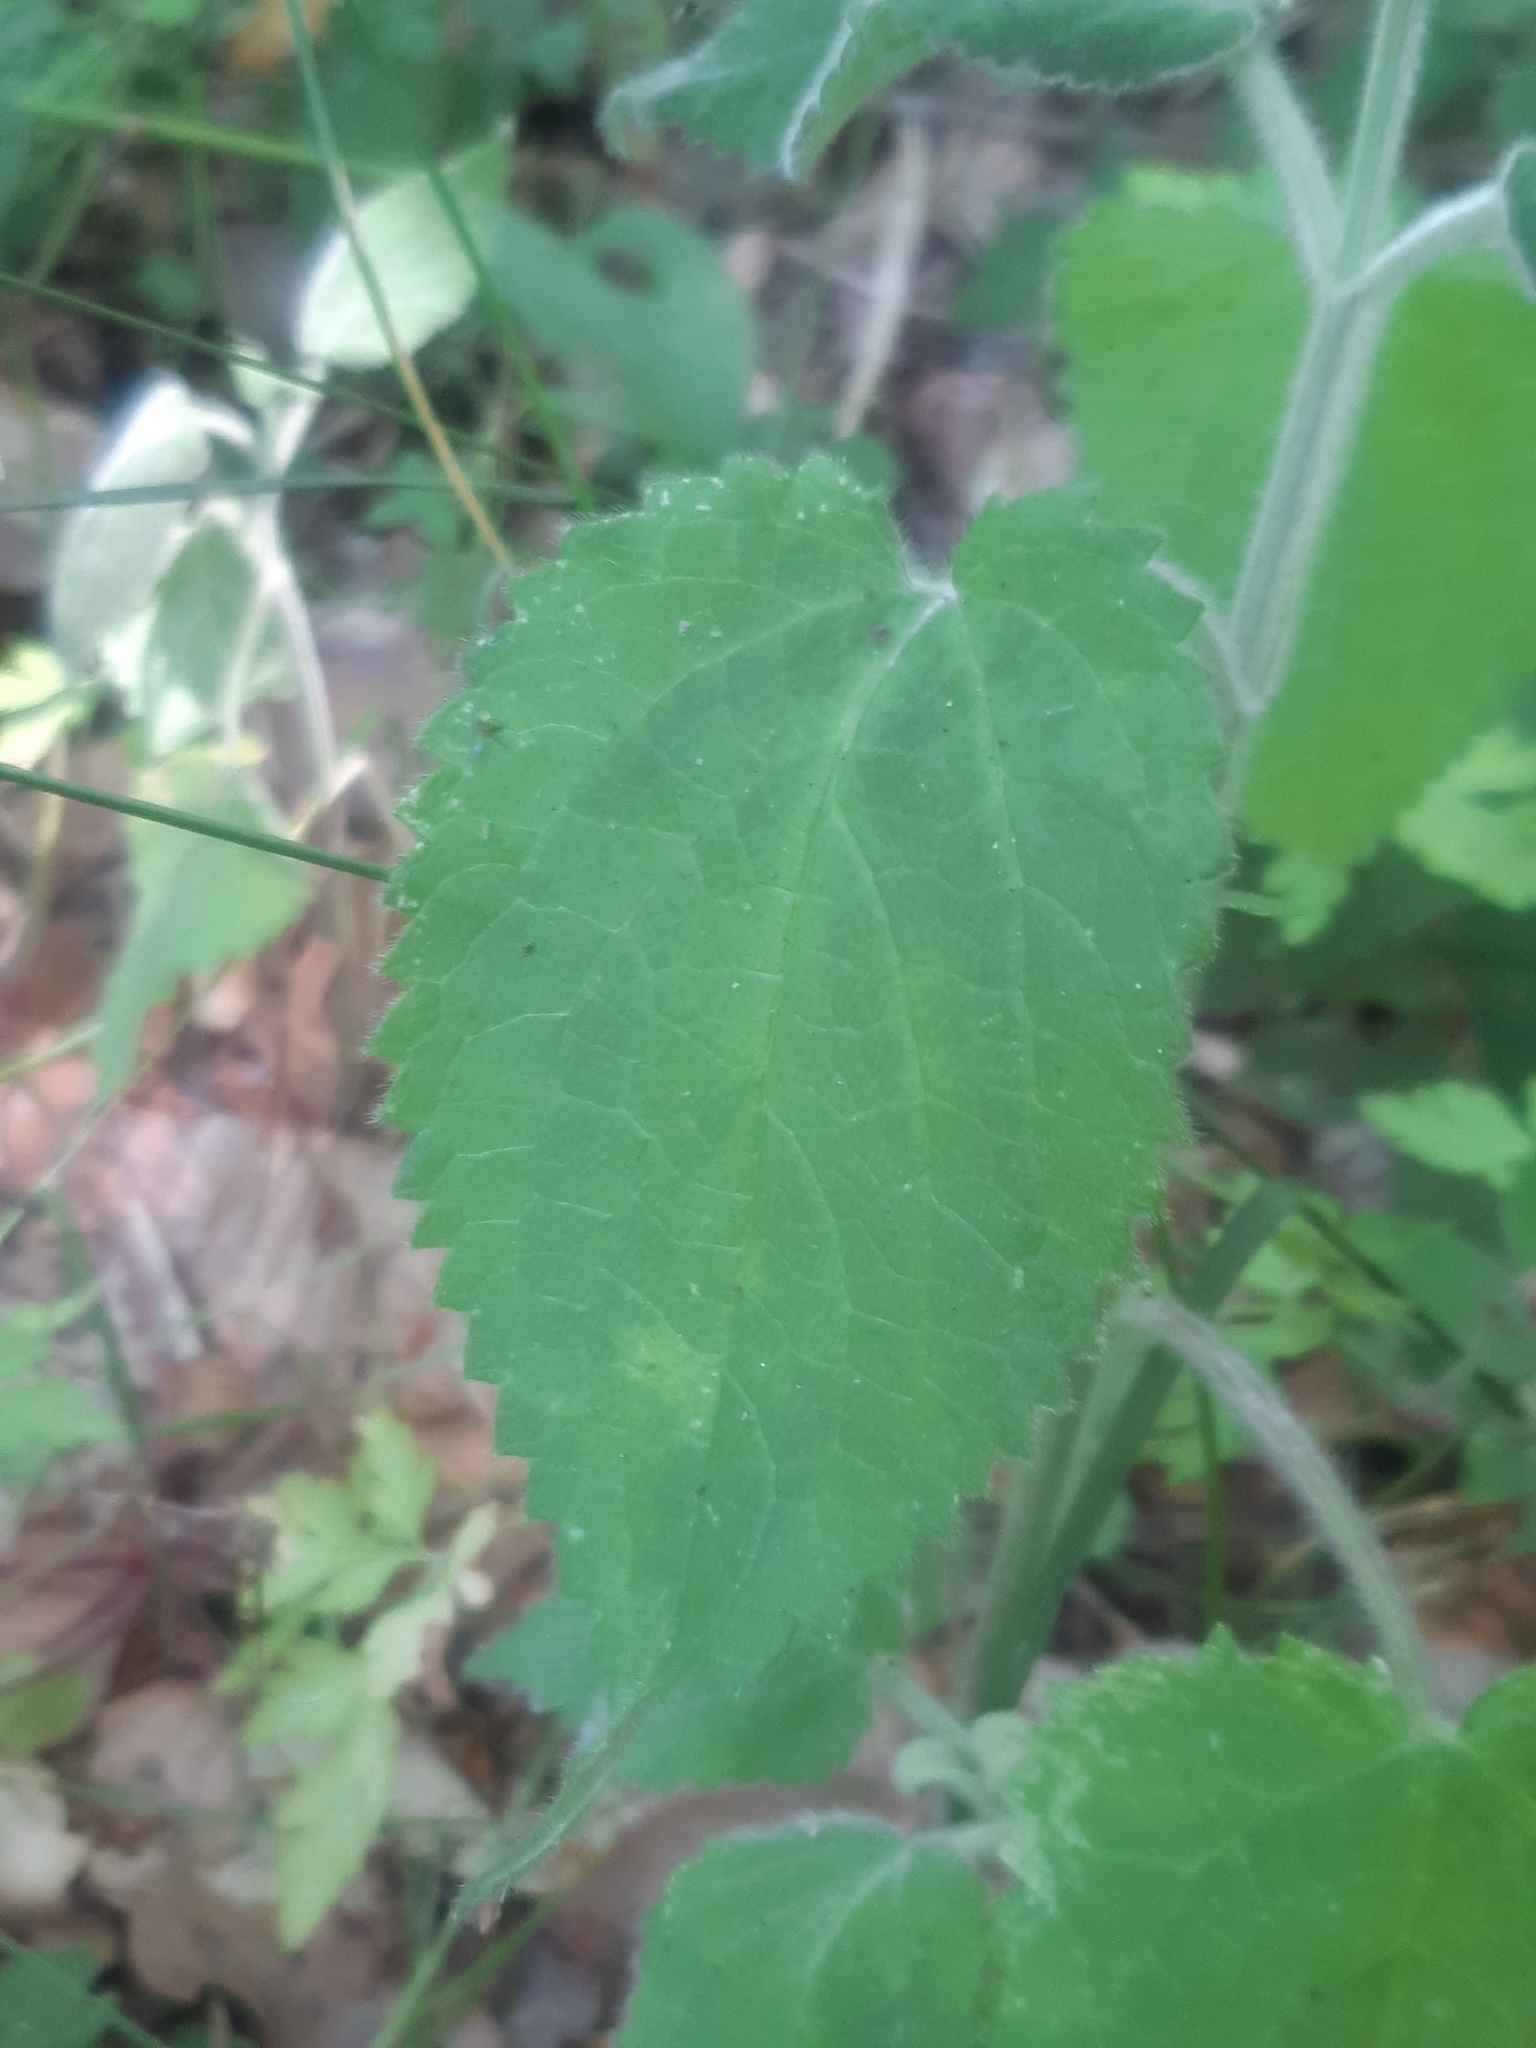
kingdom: Plantae
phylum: Tracheophyta
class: Magnoliopsida
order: Lamiales
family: Lamiaceae
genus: Stachys
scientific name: Stachys sylvatica
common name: Hedge woundwort
